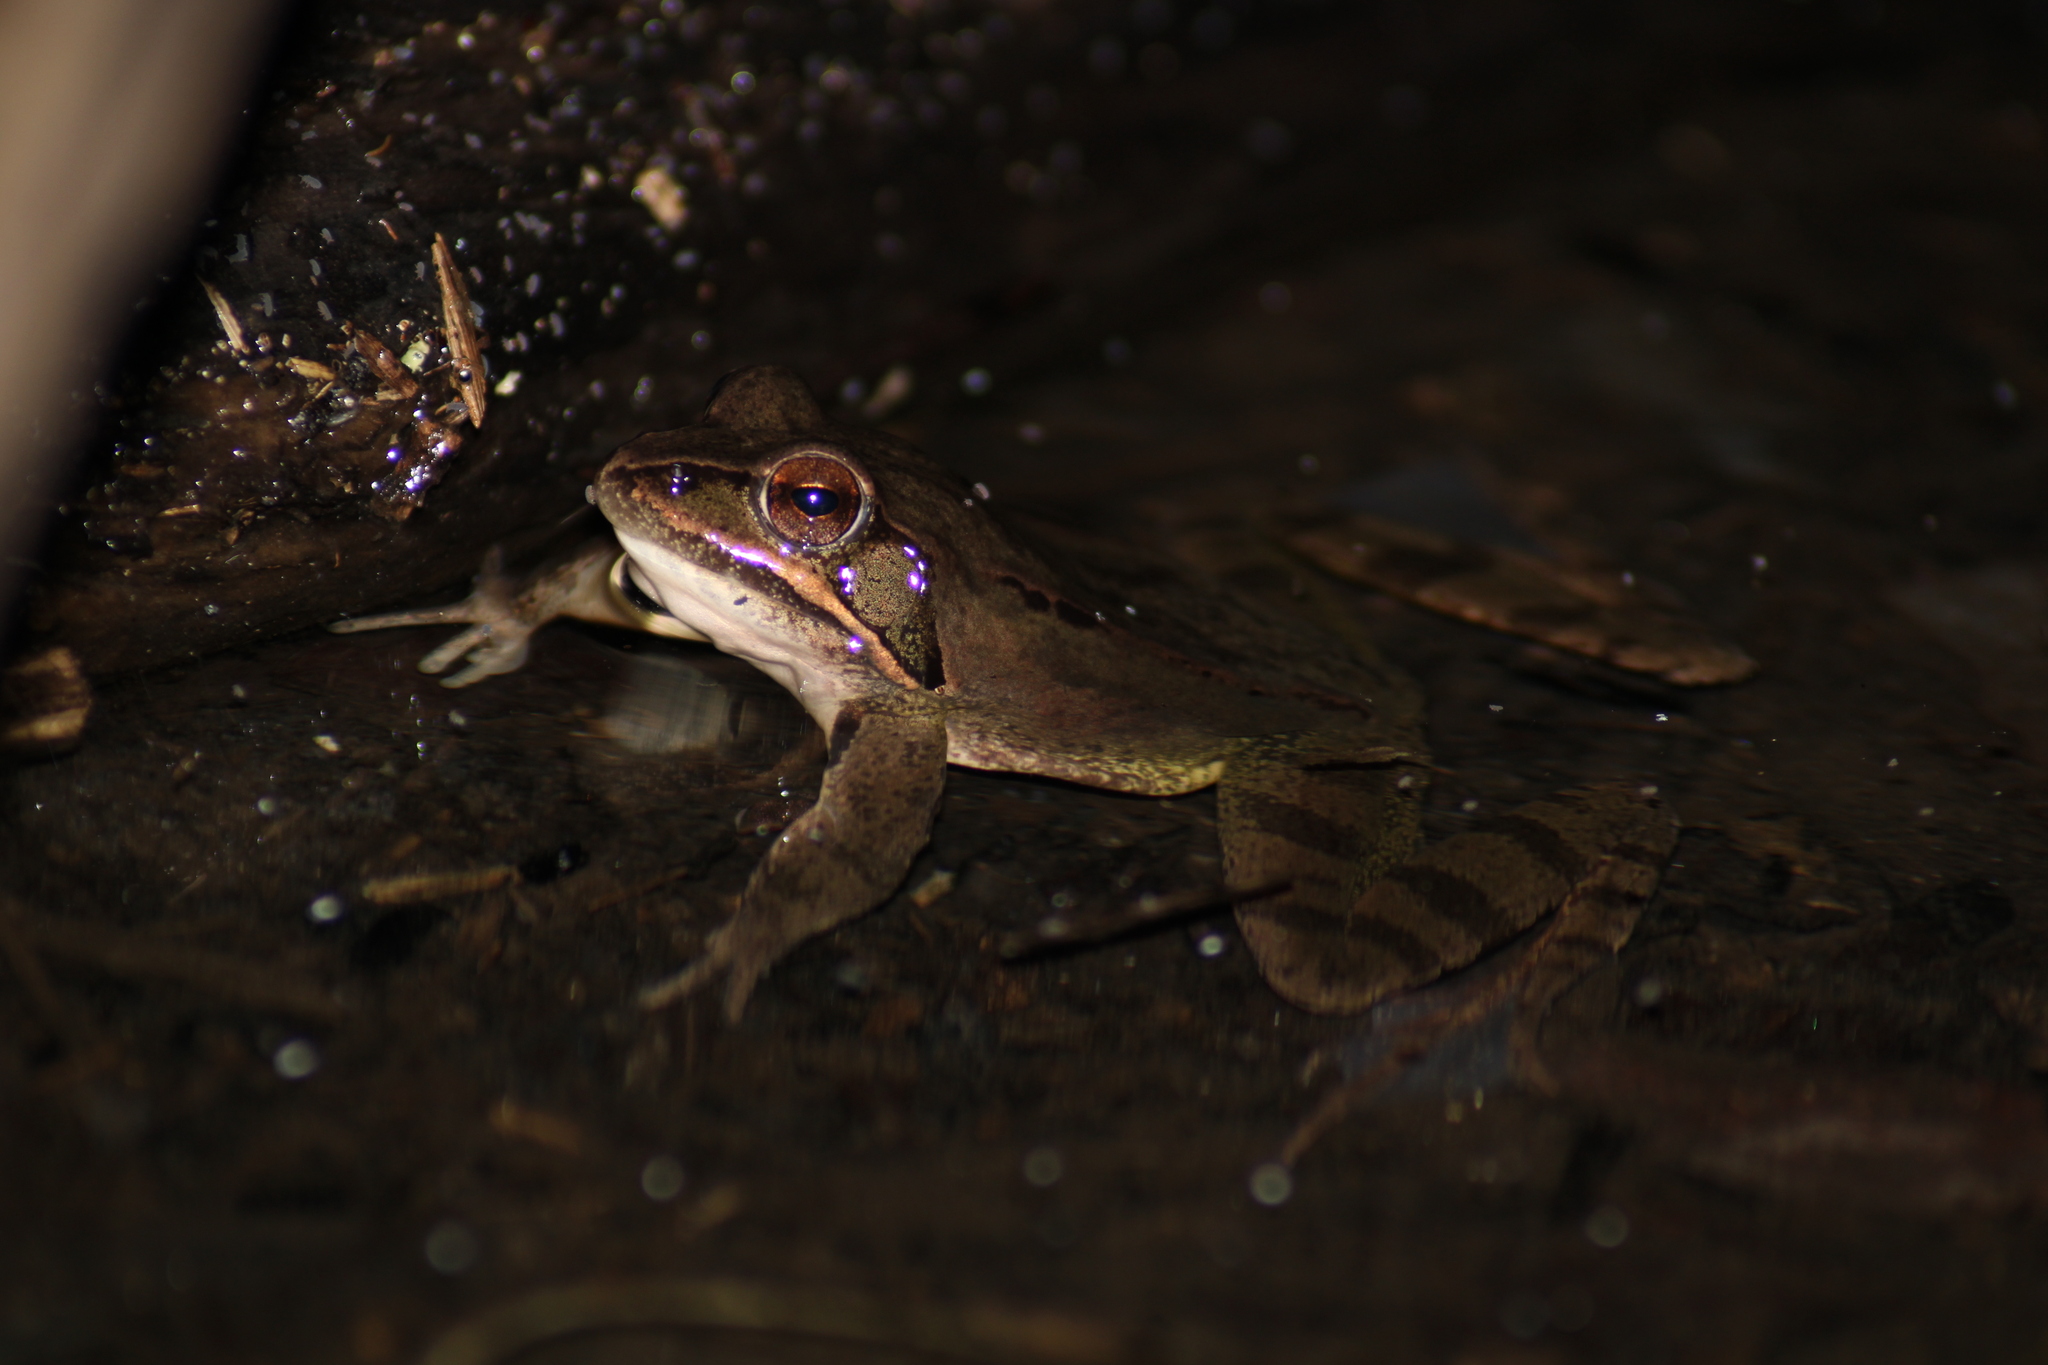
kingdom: Animalia
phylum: Chordata
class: Amphibia
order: Anura
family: Ranidae
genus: Rana
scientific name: Rana dalmatina
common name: Agile frog
